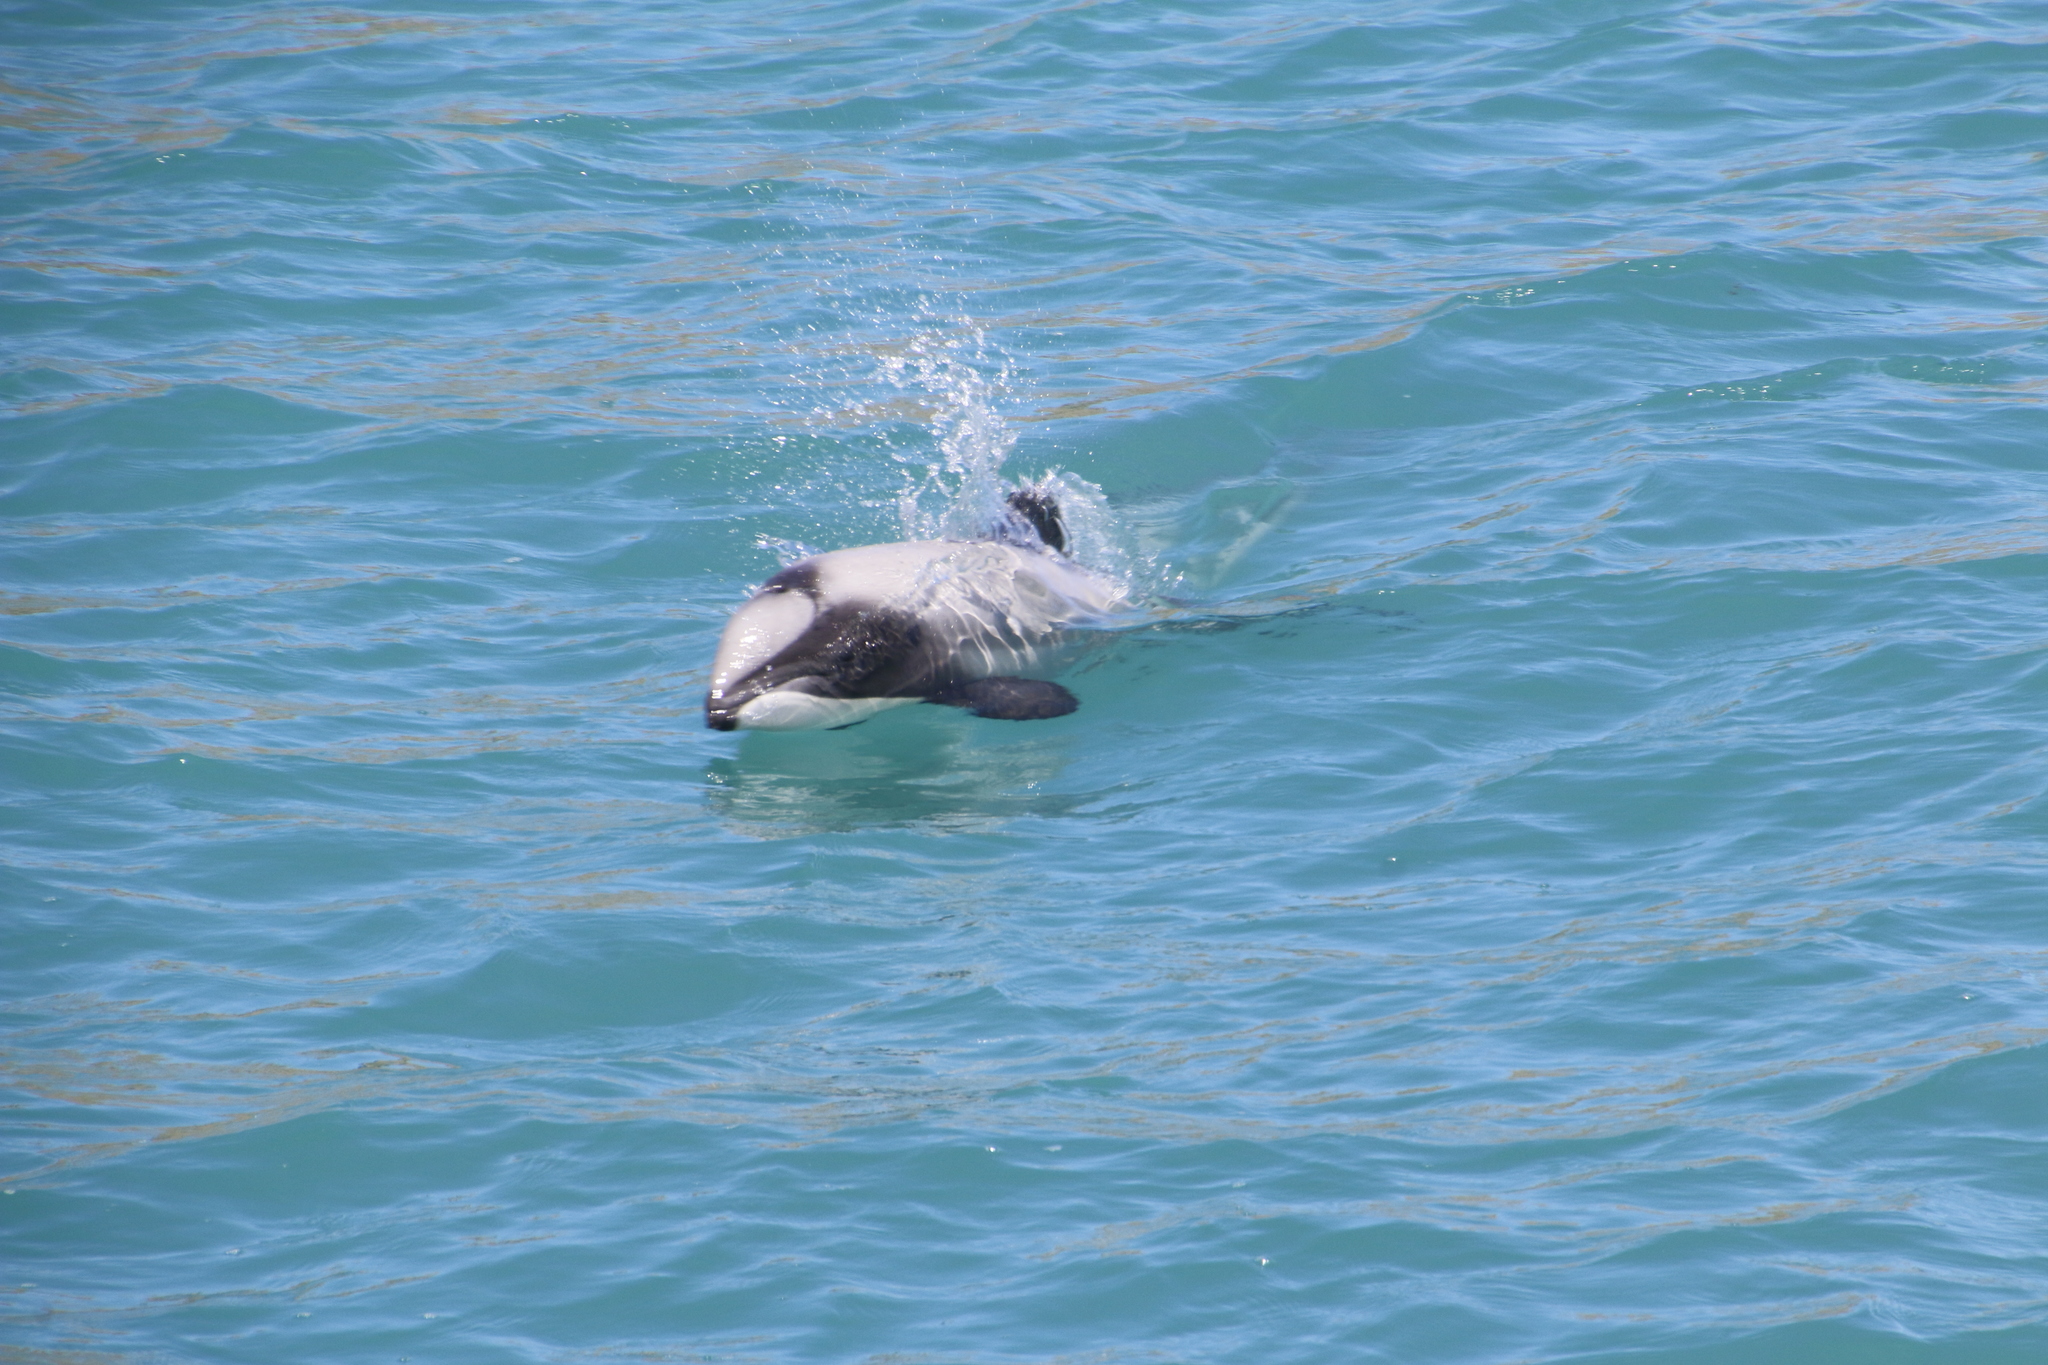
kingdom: Animalia
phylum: Chordata
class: Mammalia
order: Cetacea
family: Delphinidae
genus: Cephalorhynchus
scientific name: Cephalorhynchus hectori
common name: Hector's dolphin
